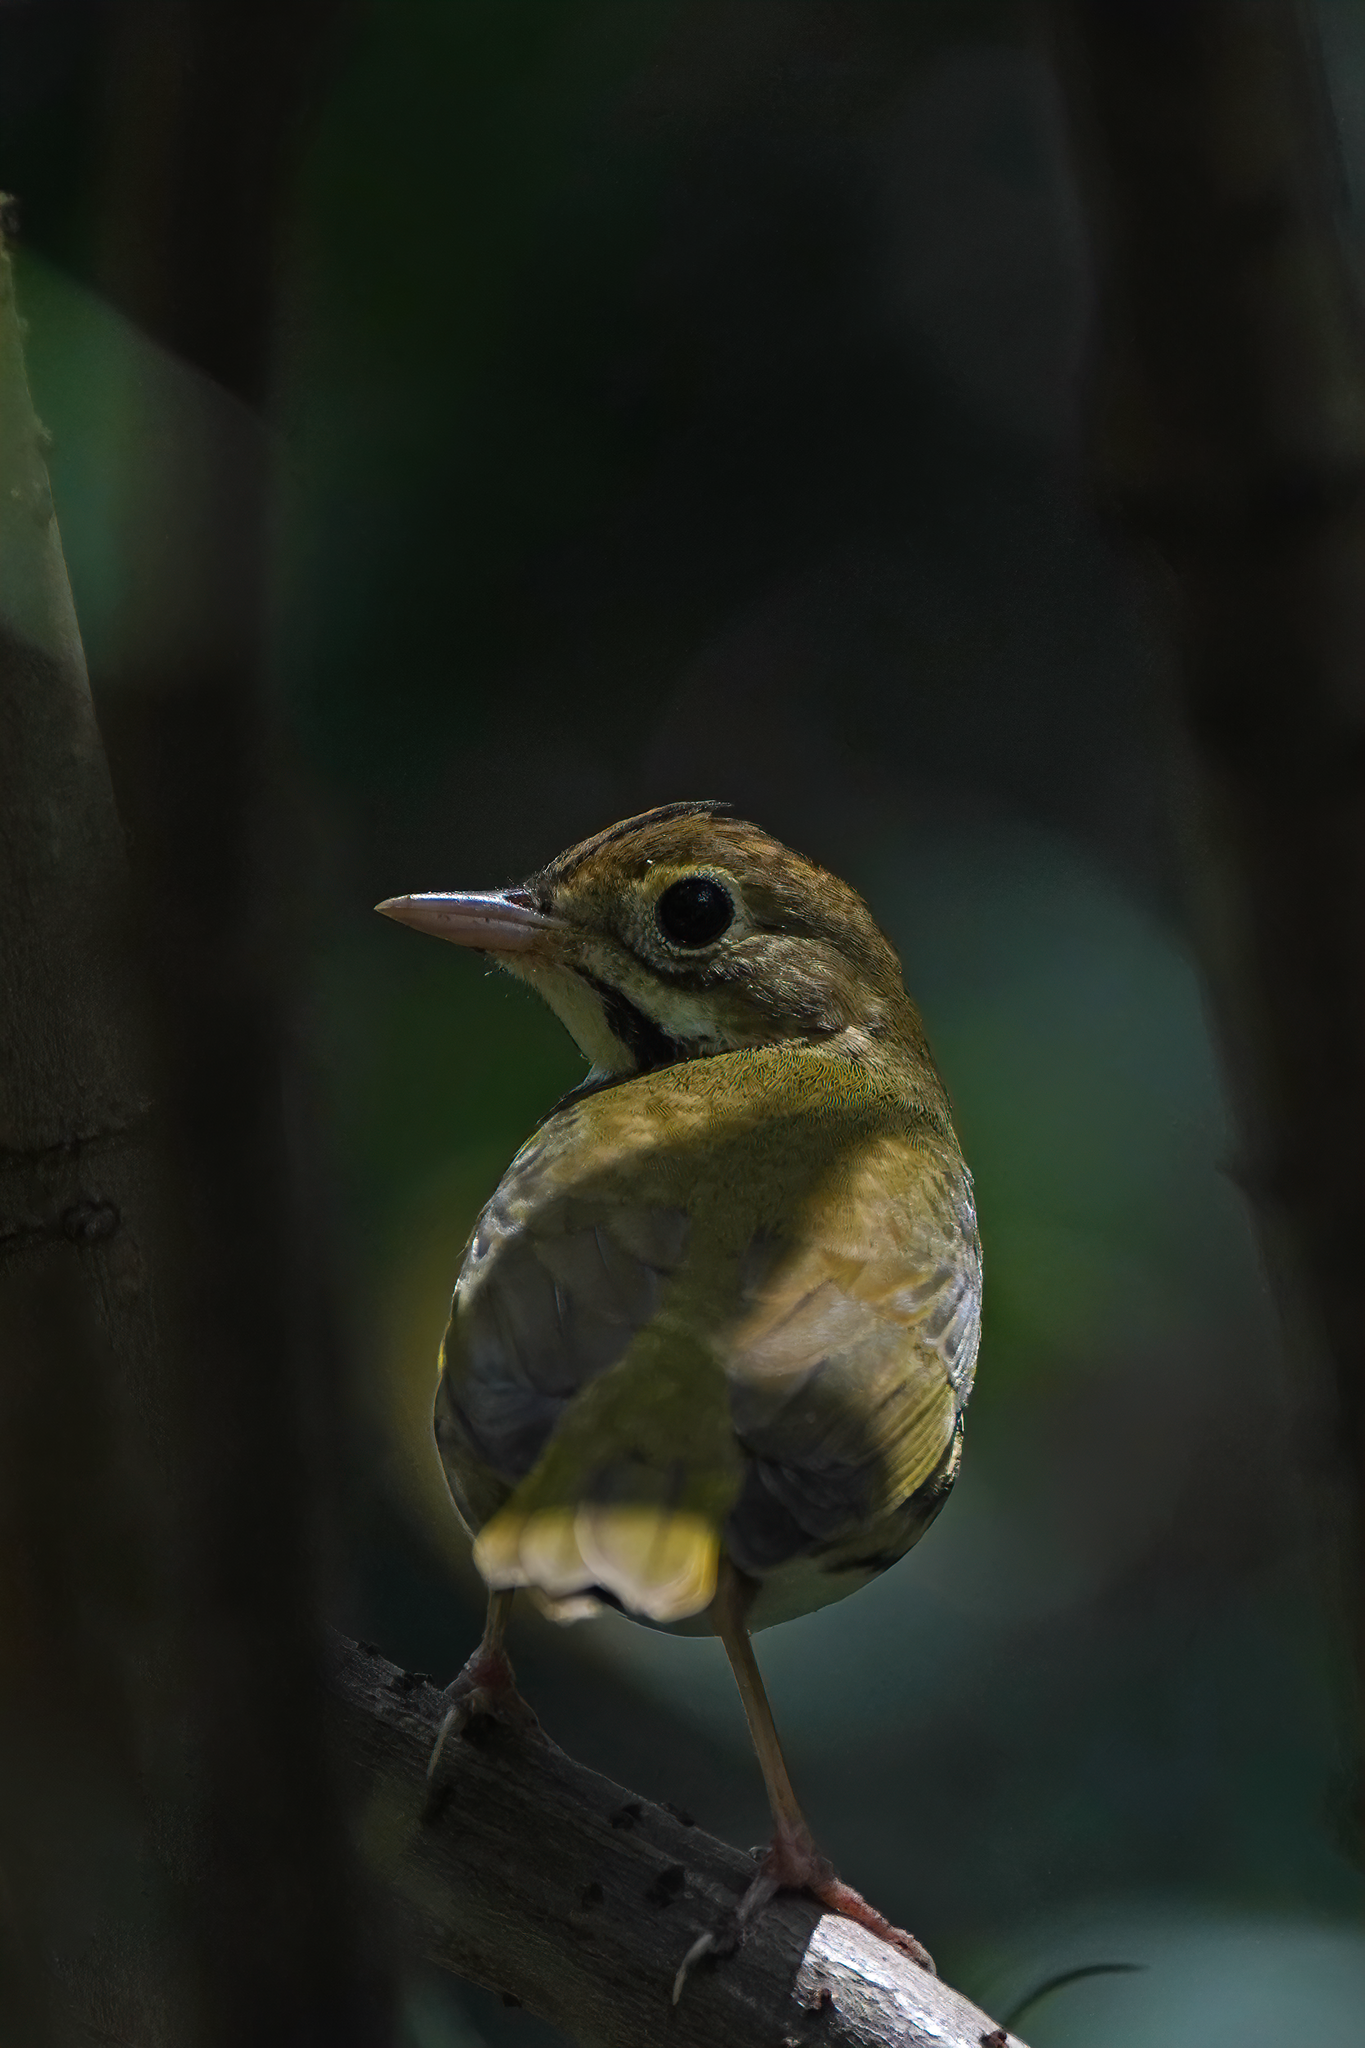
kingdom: Animalia
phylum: Chordata
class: Aves
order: Passeriformes
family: Parulidae
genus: Seiurus
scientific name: Seiurus aurocapilla
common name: Ovenbird
